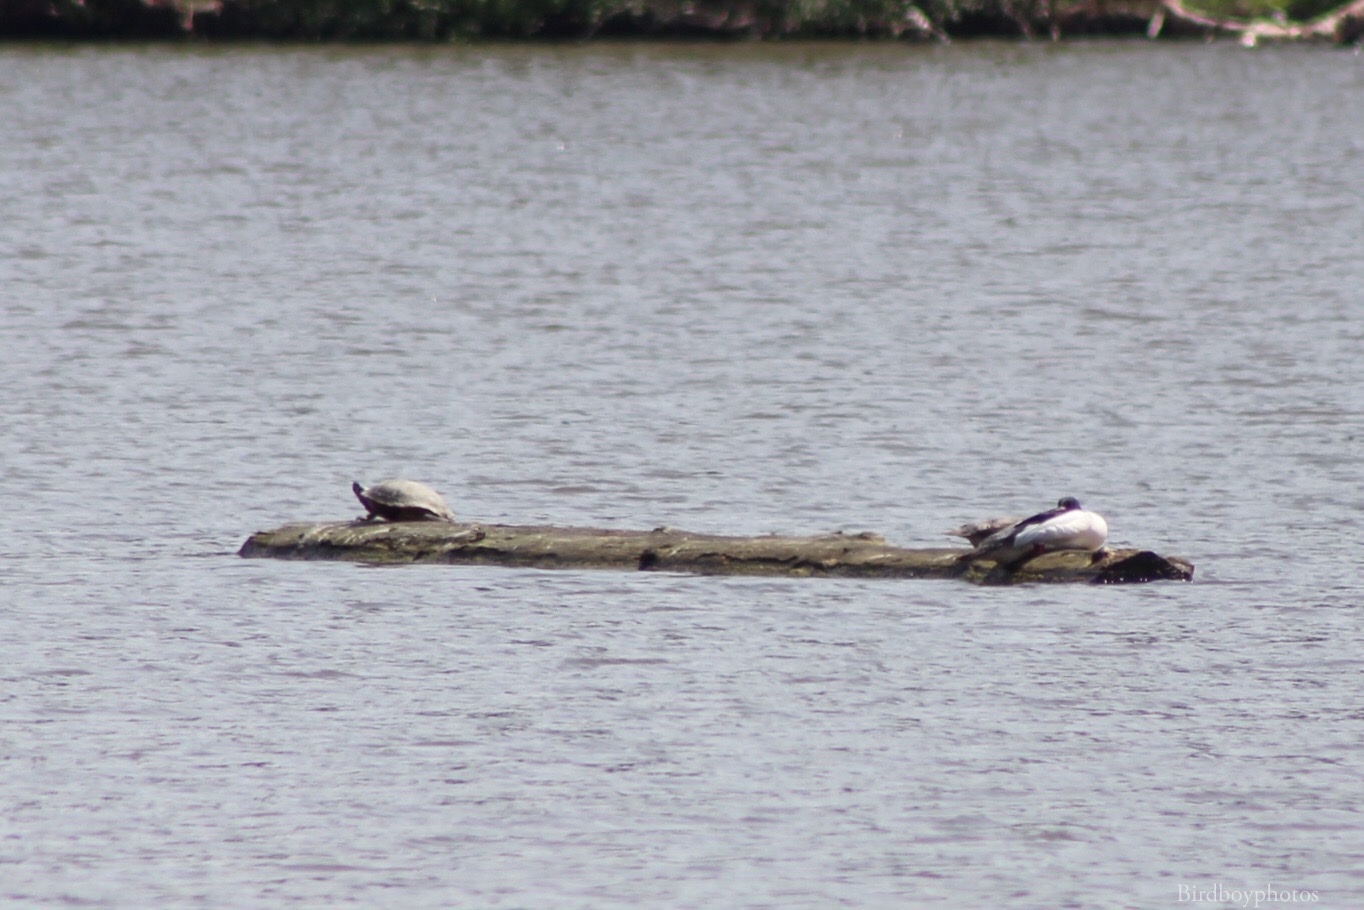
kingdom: Animalia
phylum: Chordata
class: Testudines
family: Emydidae
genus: Trachemys
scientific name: Trachemys scripta
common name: Slider
